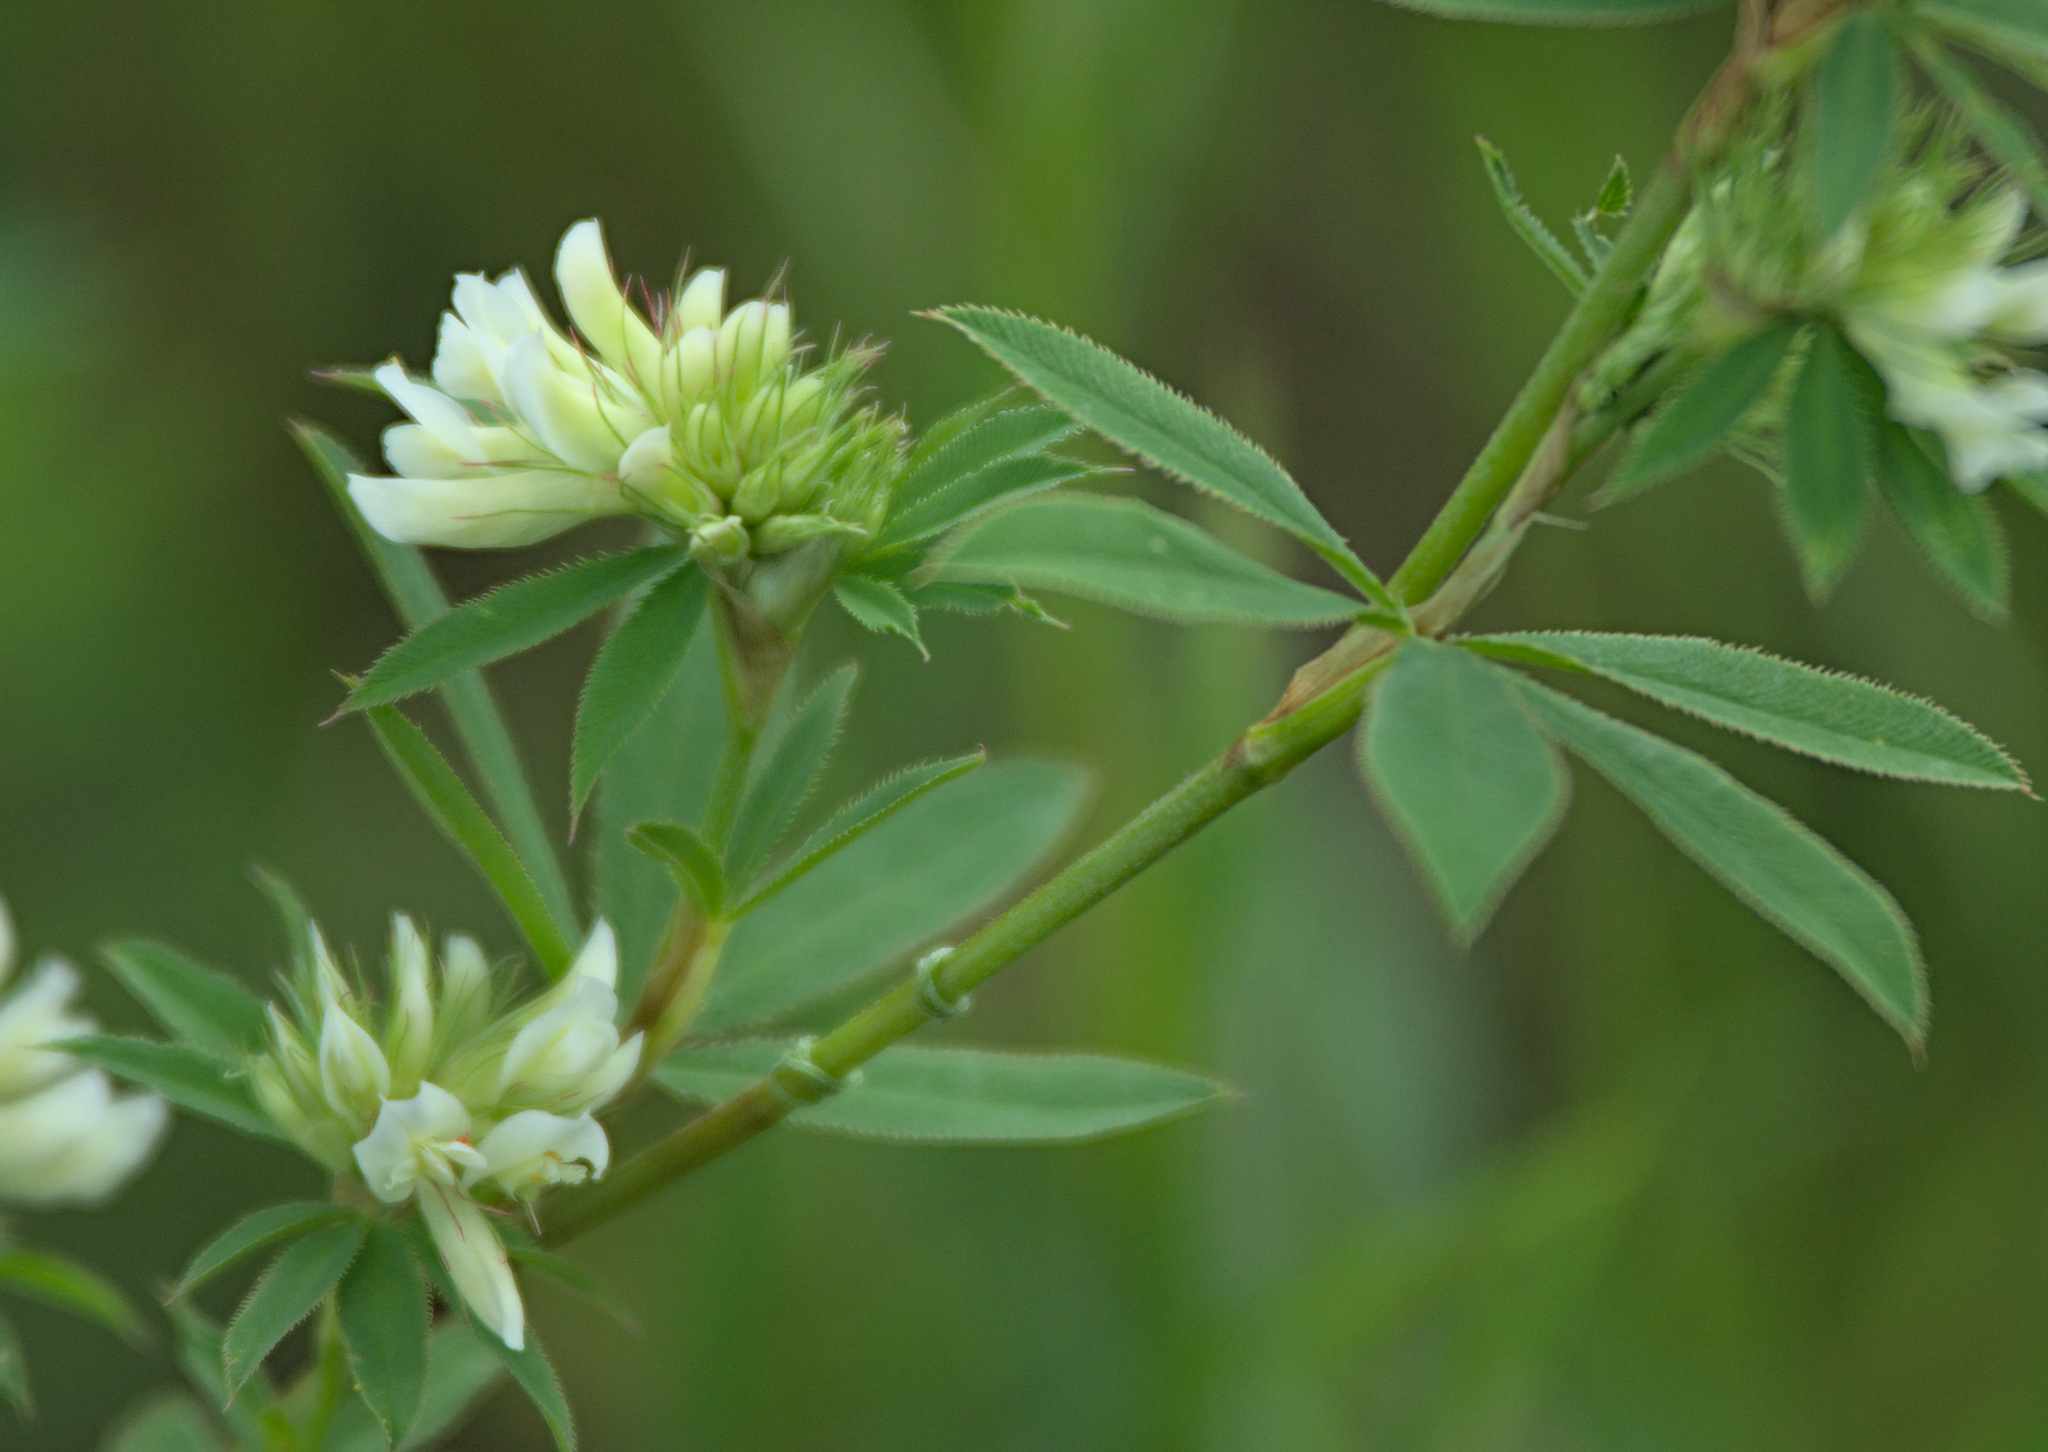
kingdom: Plantae
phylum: Tracheophyta
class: Magnoliopsida
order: Fabales
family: Fabaceae
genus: Trifolium
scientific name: Trifolium lupinaster
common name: Lupine clover
